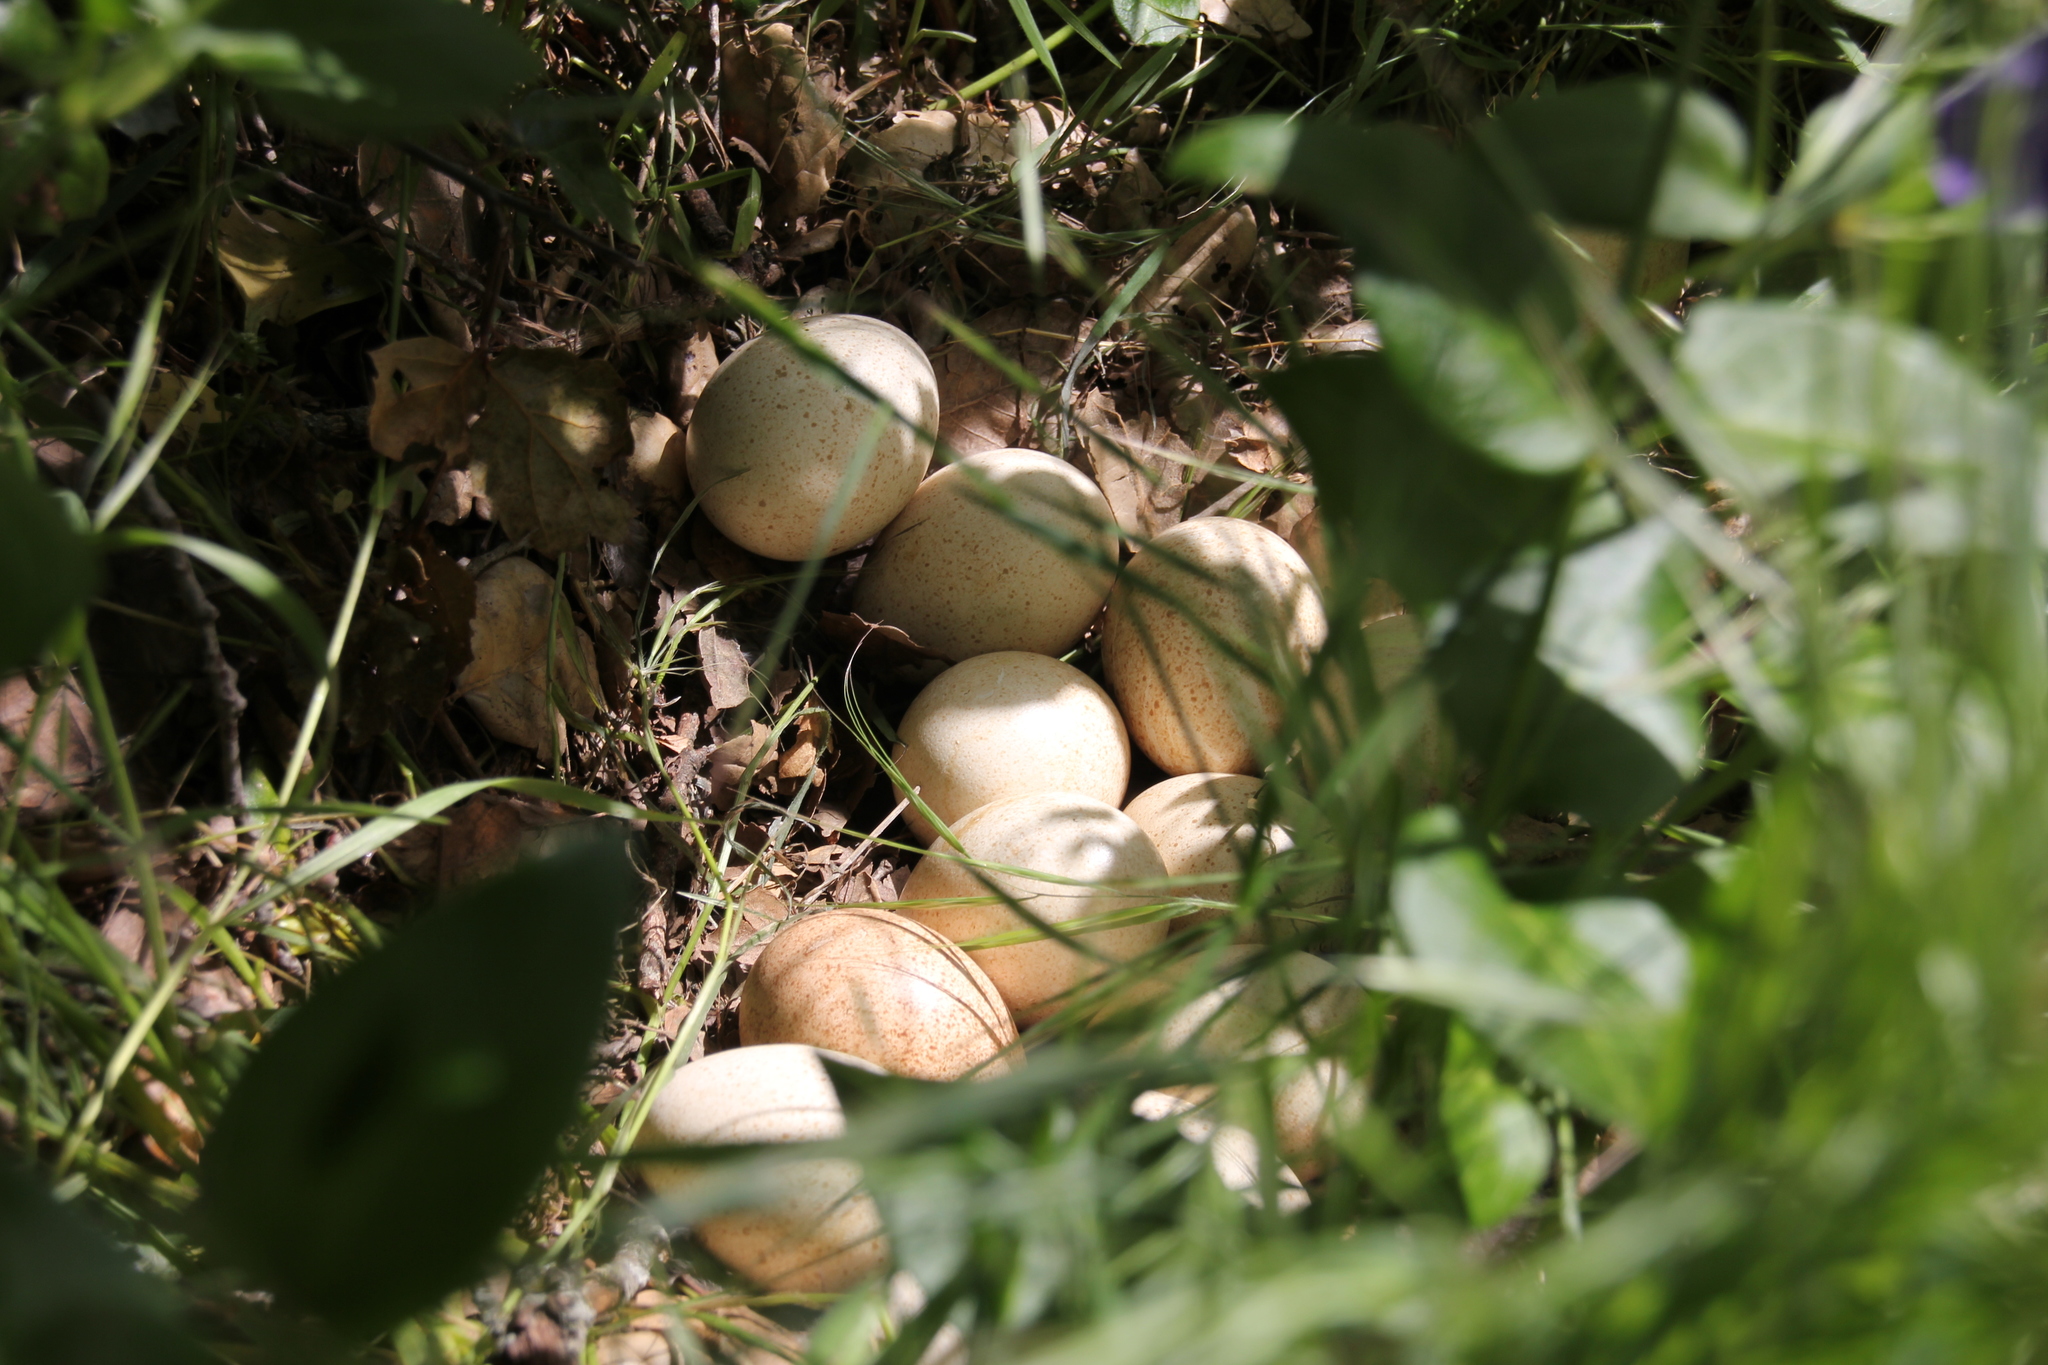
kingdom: Animalia
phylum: Chordata
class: Aves
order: Galliformes
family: Phasianidae
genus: Meleagris
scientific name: Meleagris gallopavo
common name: Wild turkey
